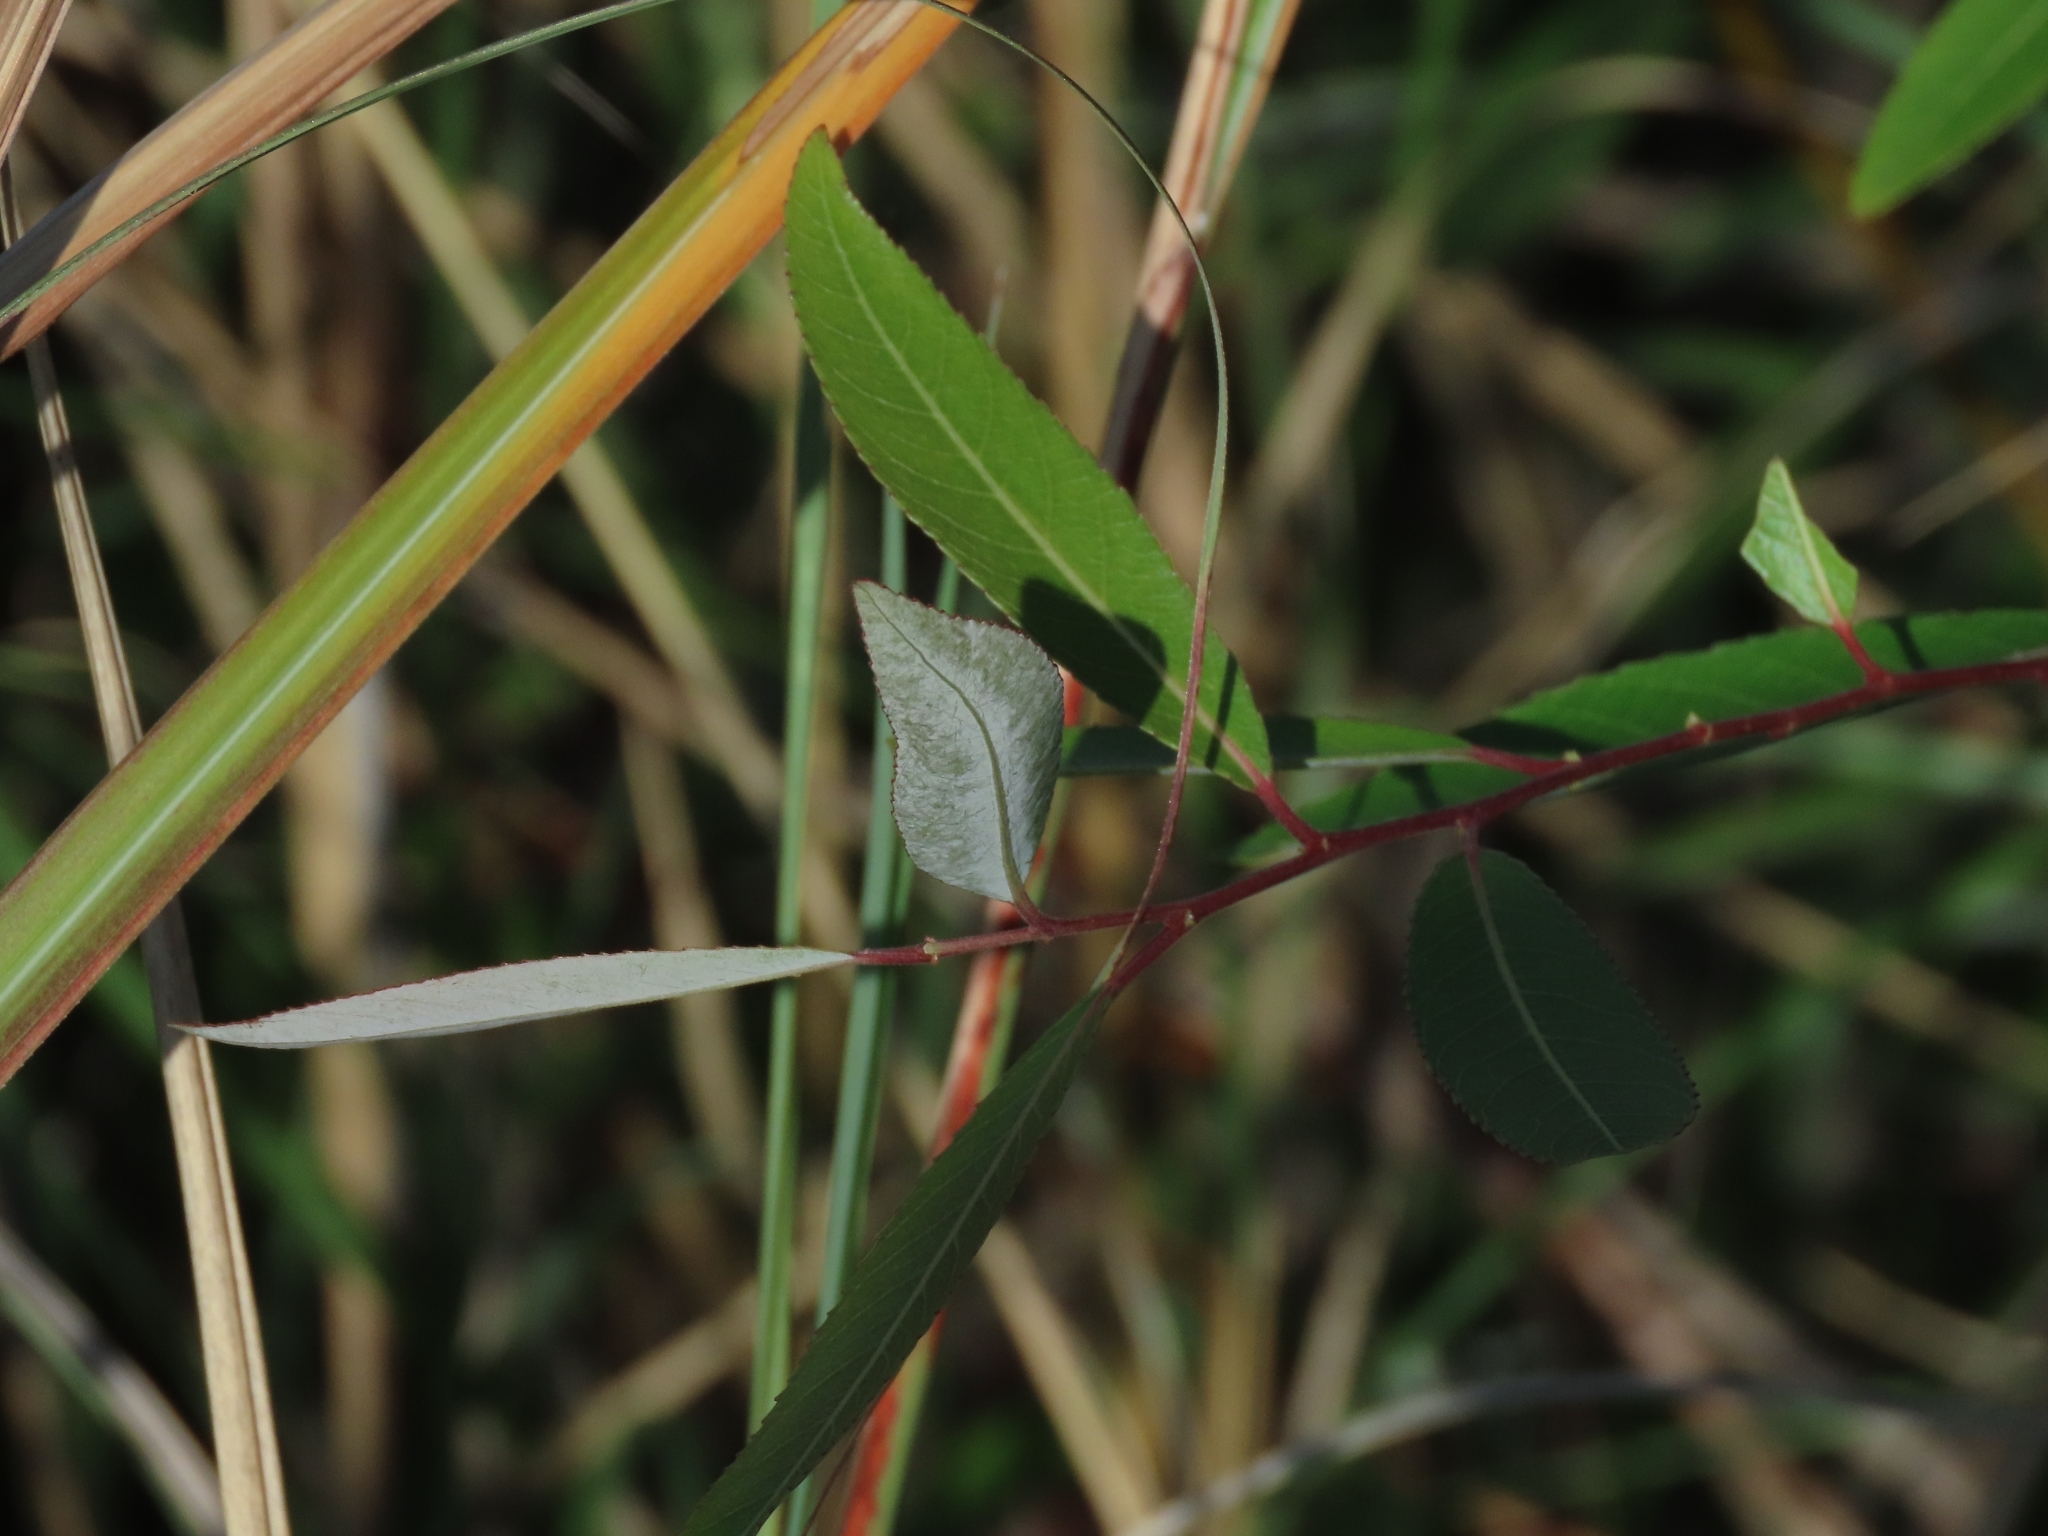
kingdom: Plantae
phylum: Tracheophyta
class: Magnoliopsida
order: Malpighiales
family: Salicaceae
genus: Salix
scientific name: Salix mesnyi
